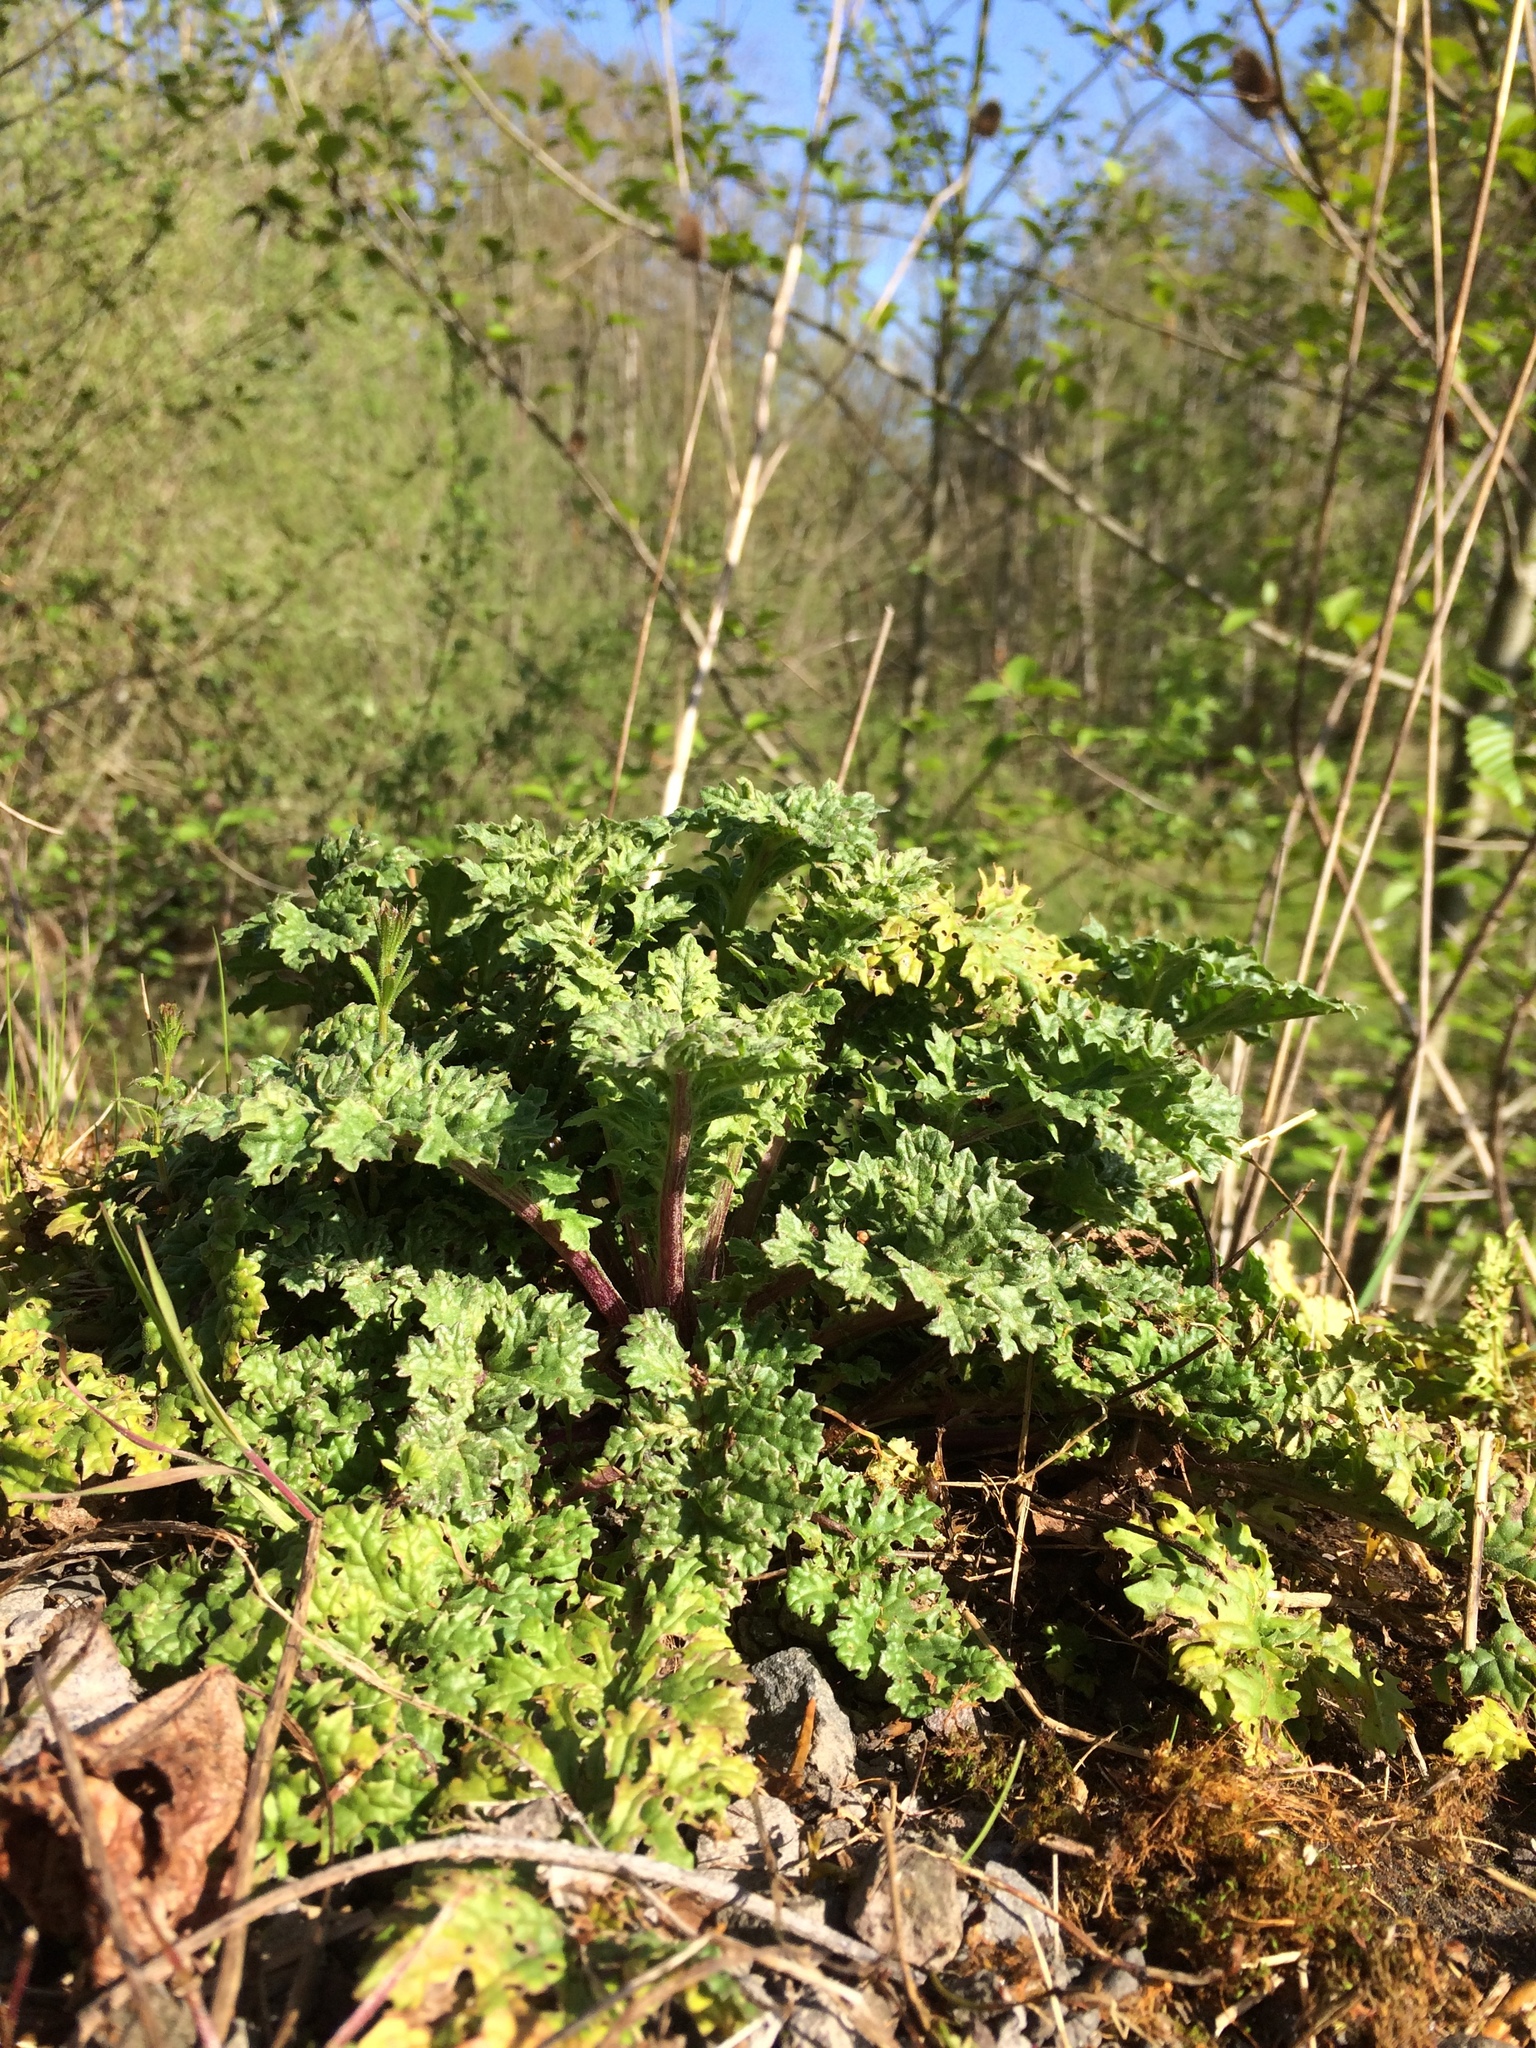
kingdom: Plantae
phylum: Tracheophyta
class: Magnoliopsida
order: Asterales
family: Asteraceae
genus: Jacobaea
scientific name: Jacobaea vulgaris
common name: Stinking willie
